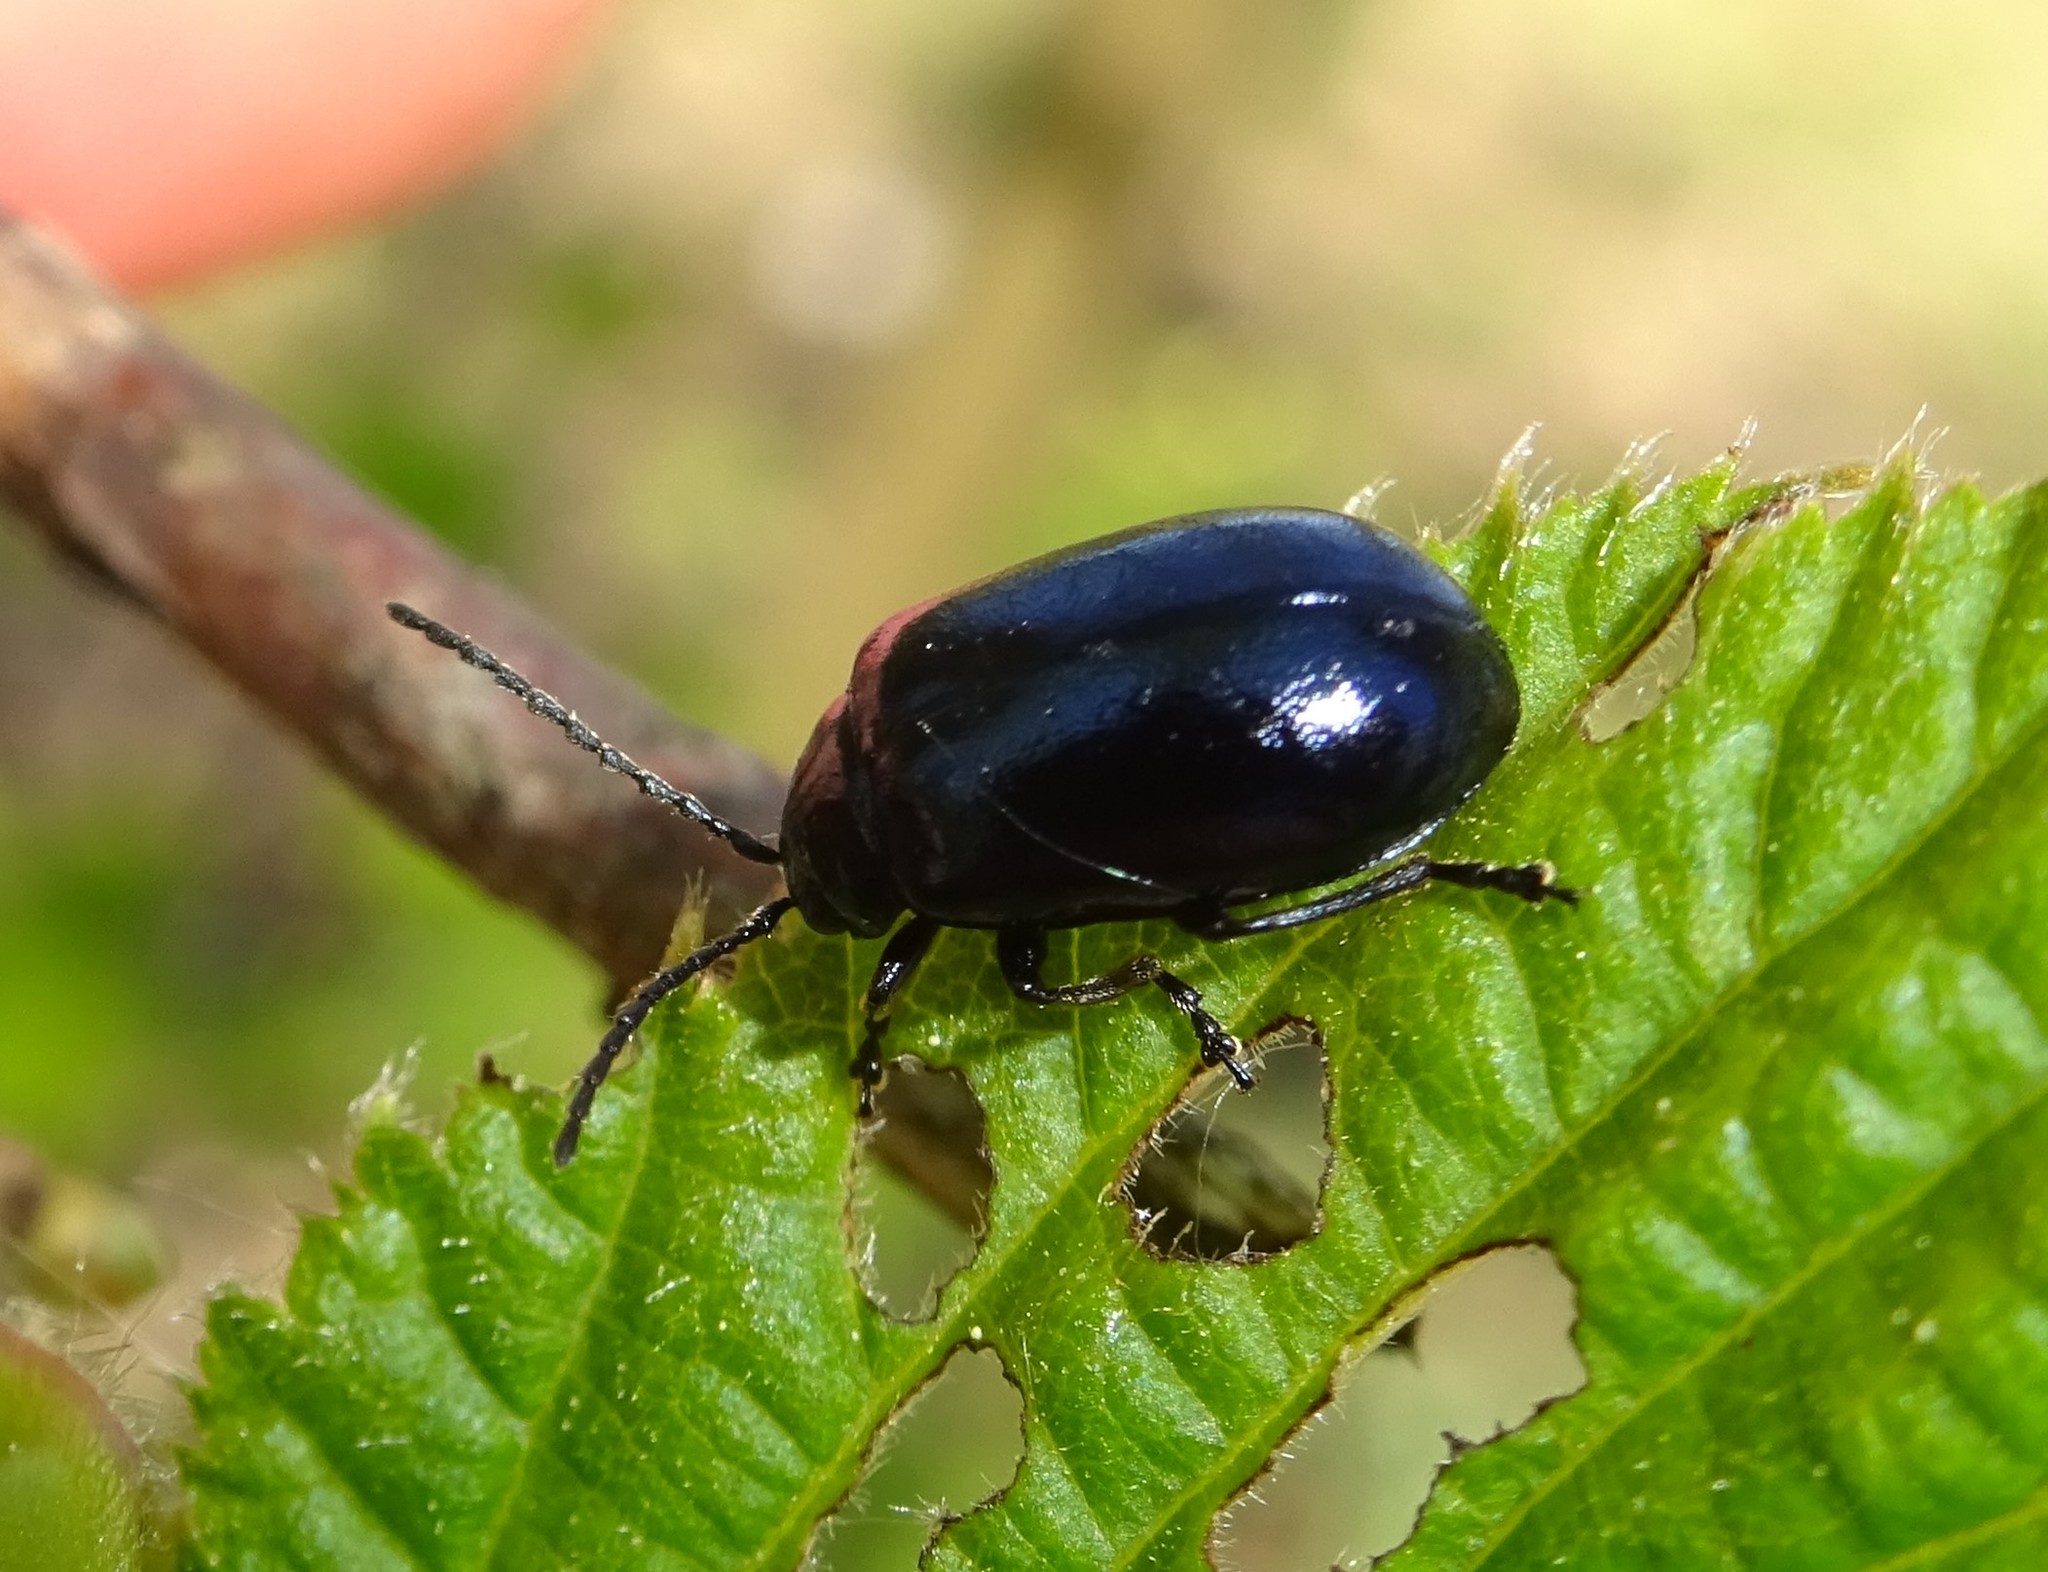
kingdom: Animalia
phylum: Arthropoda
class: Insecta
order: Coleoptera
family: Chrysomelidae
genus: Agelastica
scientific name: Agelastica alni
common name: Alder leaf beetle
